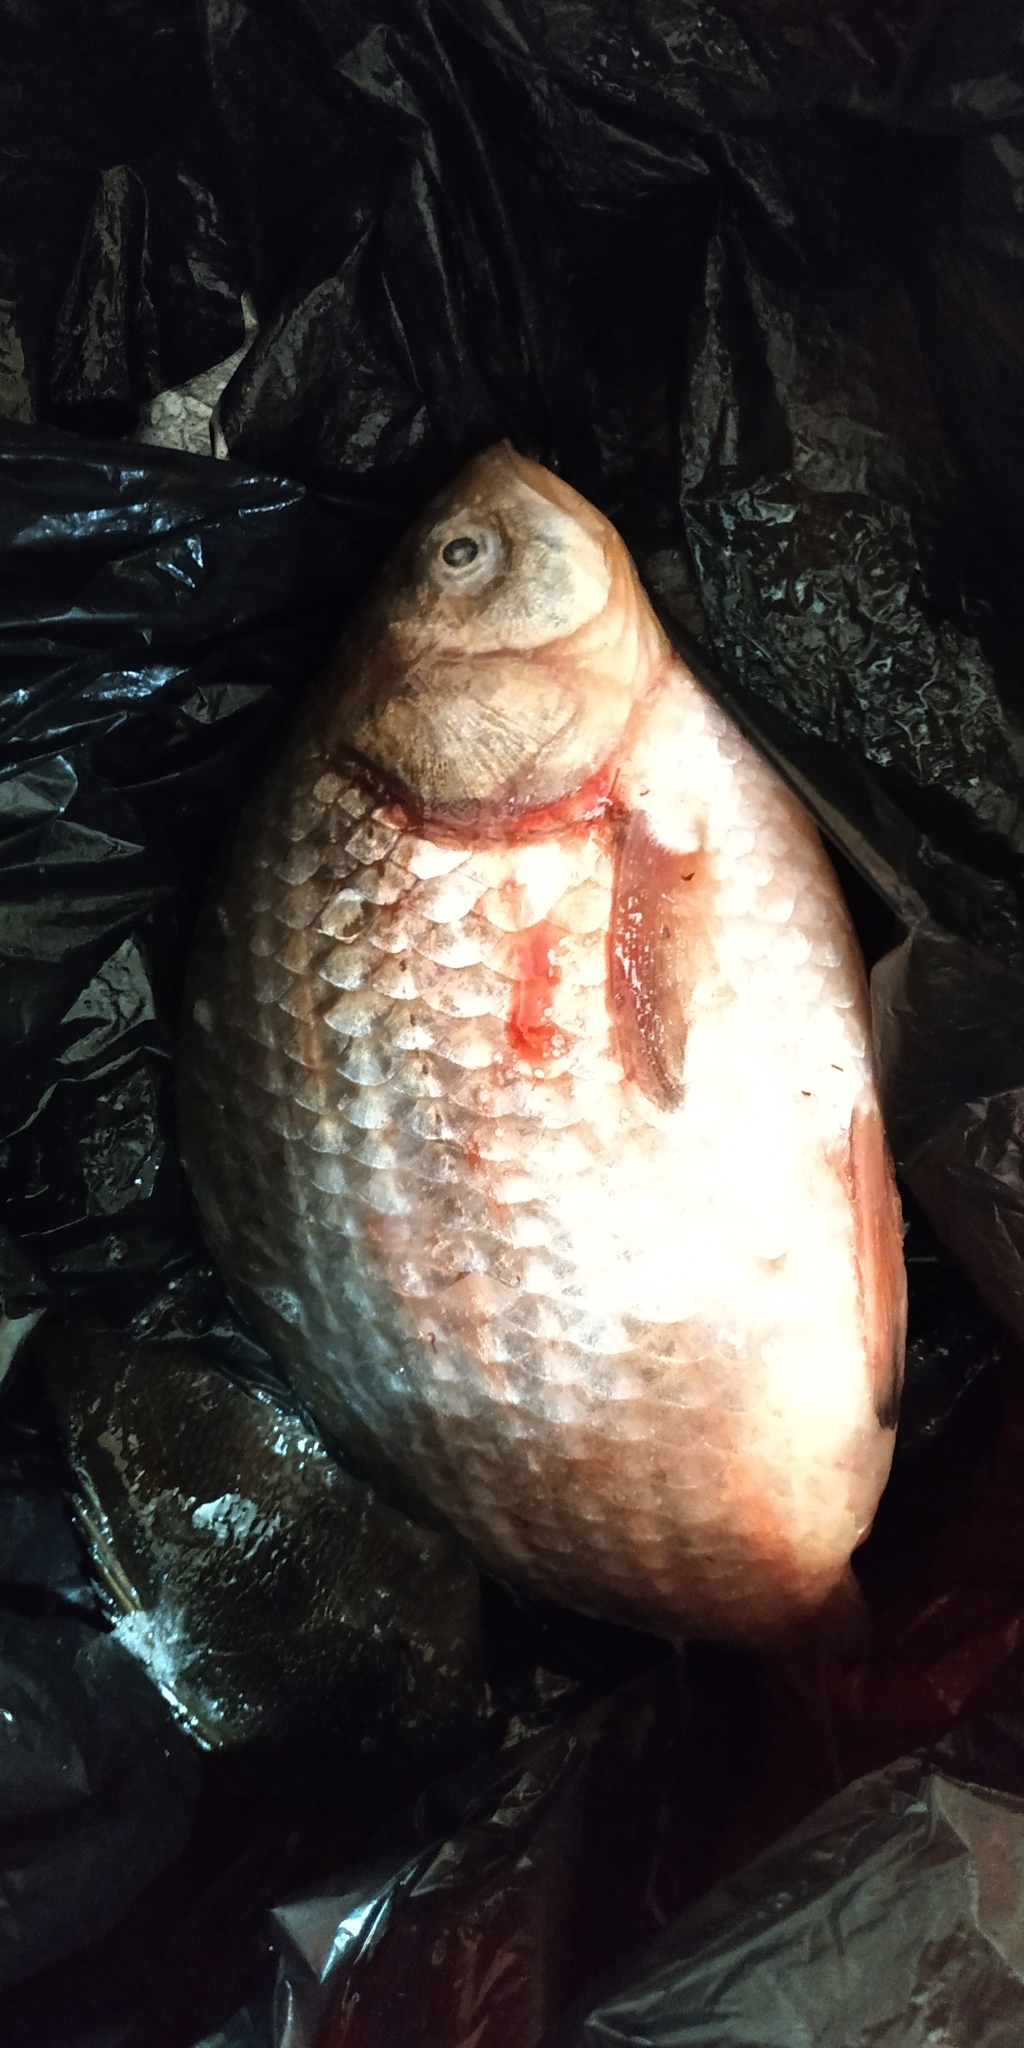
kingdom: Animalia
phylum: Chordata
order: Cypriniformes
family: Cyprinidae
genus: Carassius
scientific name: Carassius gibelio
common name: Prussian carp
